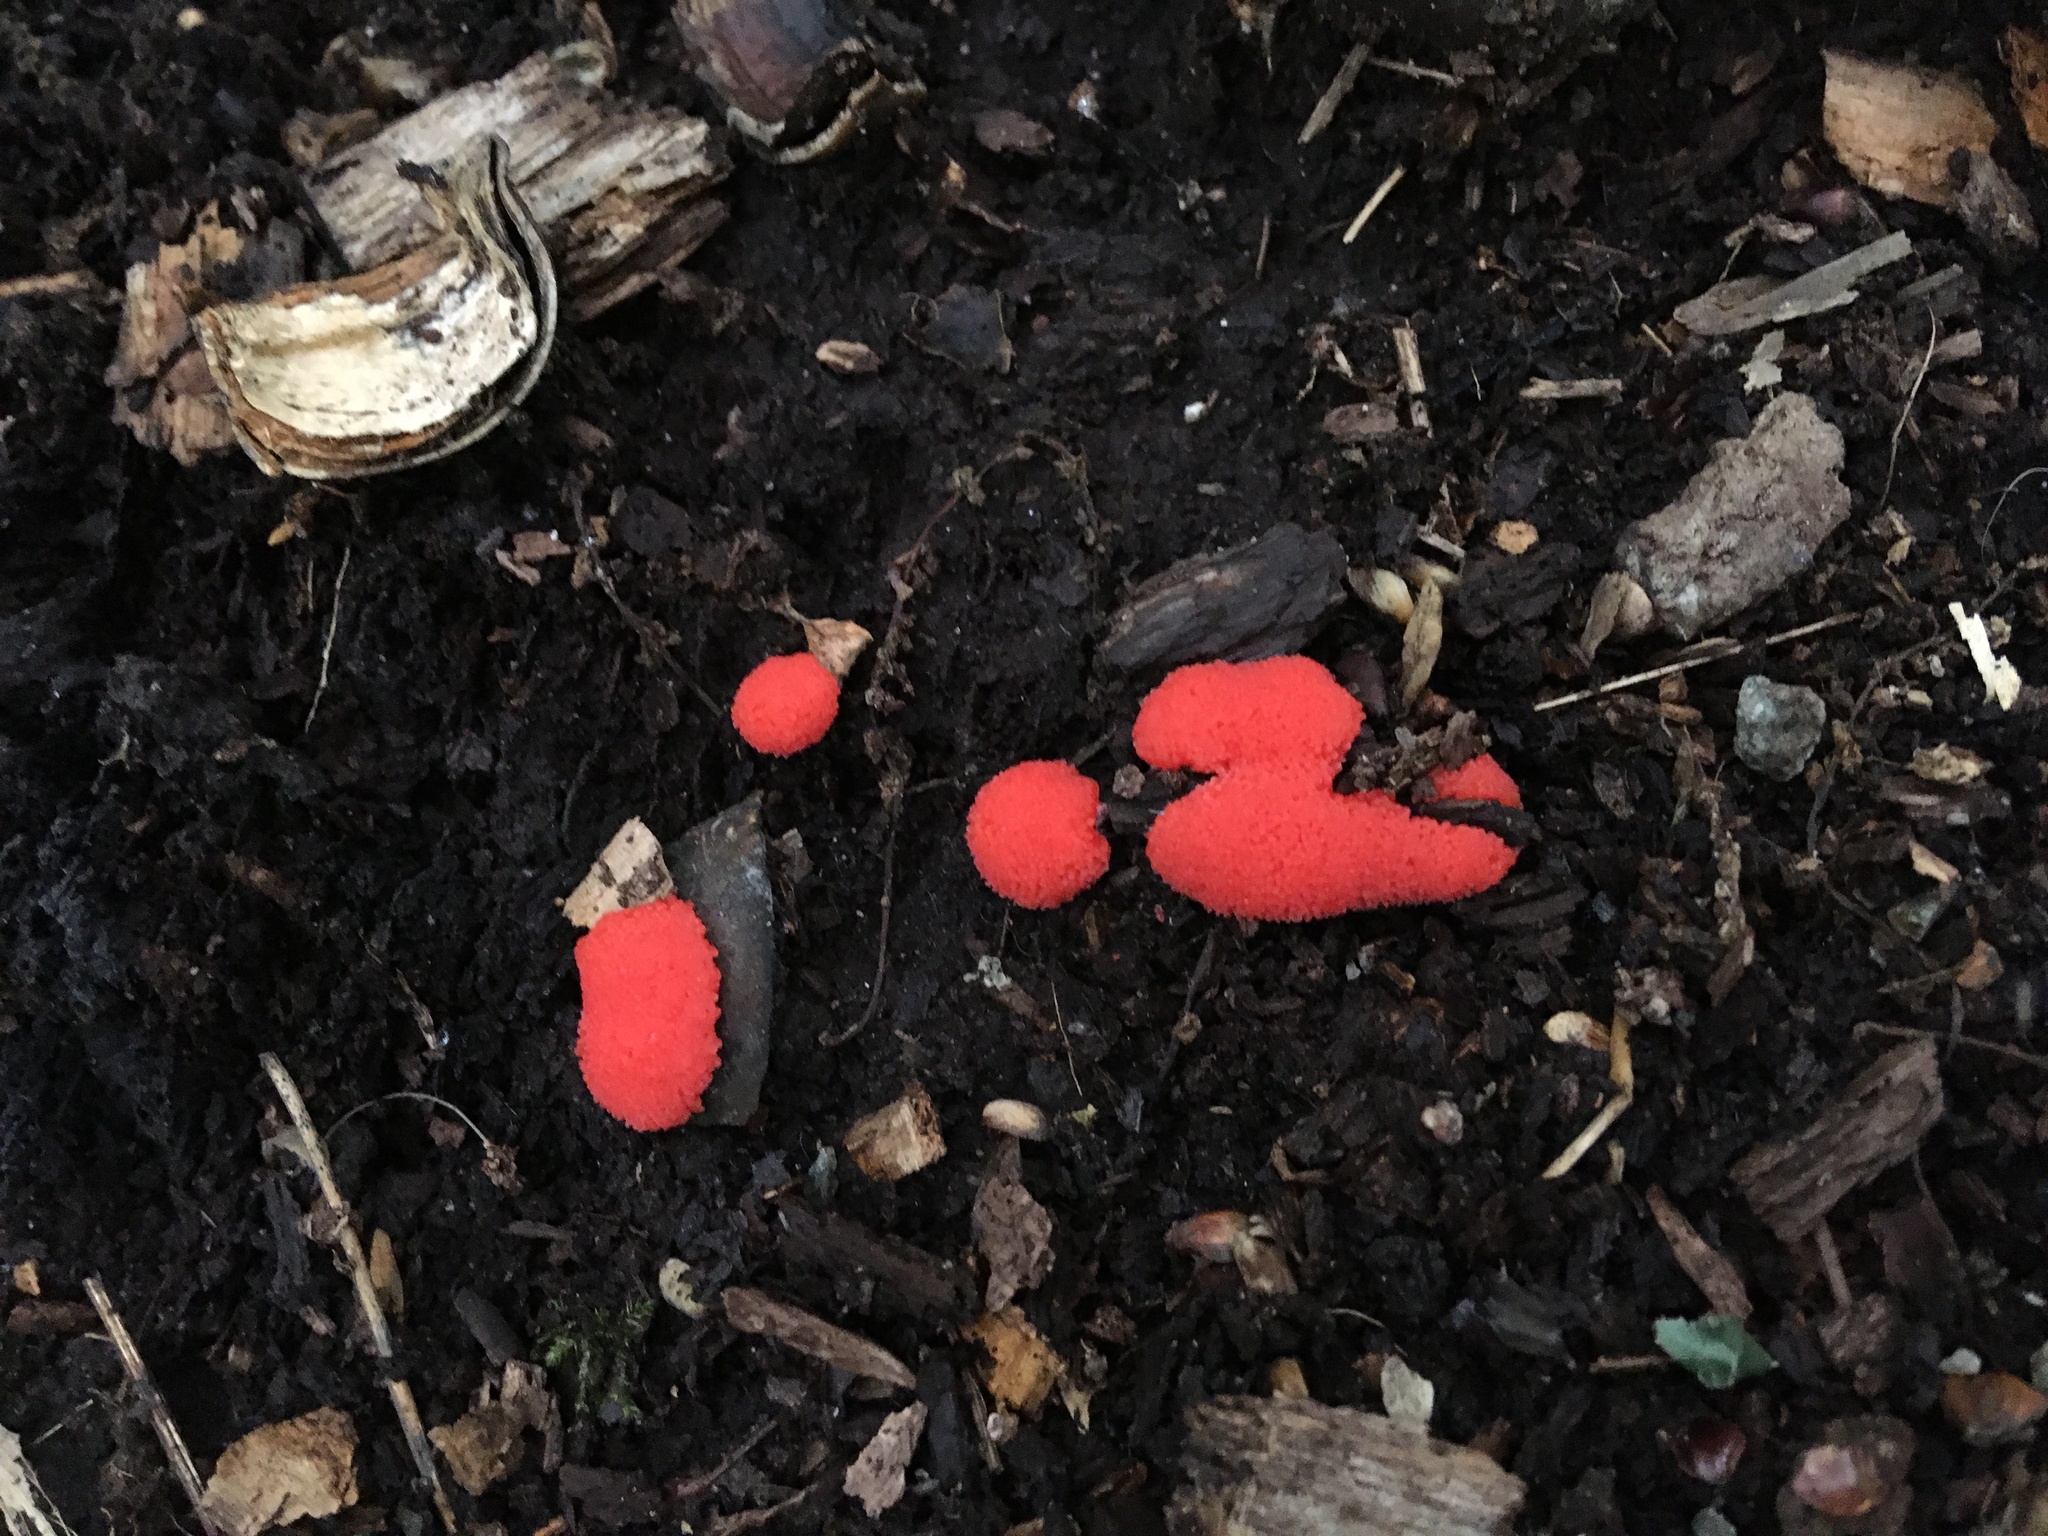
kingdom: Protozoa
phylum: Mycetozoa
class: Myxomycetes
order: Cribrariales
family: Tubiferaceae
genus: Tubifera
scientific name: Tubifera ferruginosa
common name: Red raspberry slime mold
